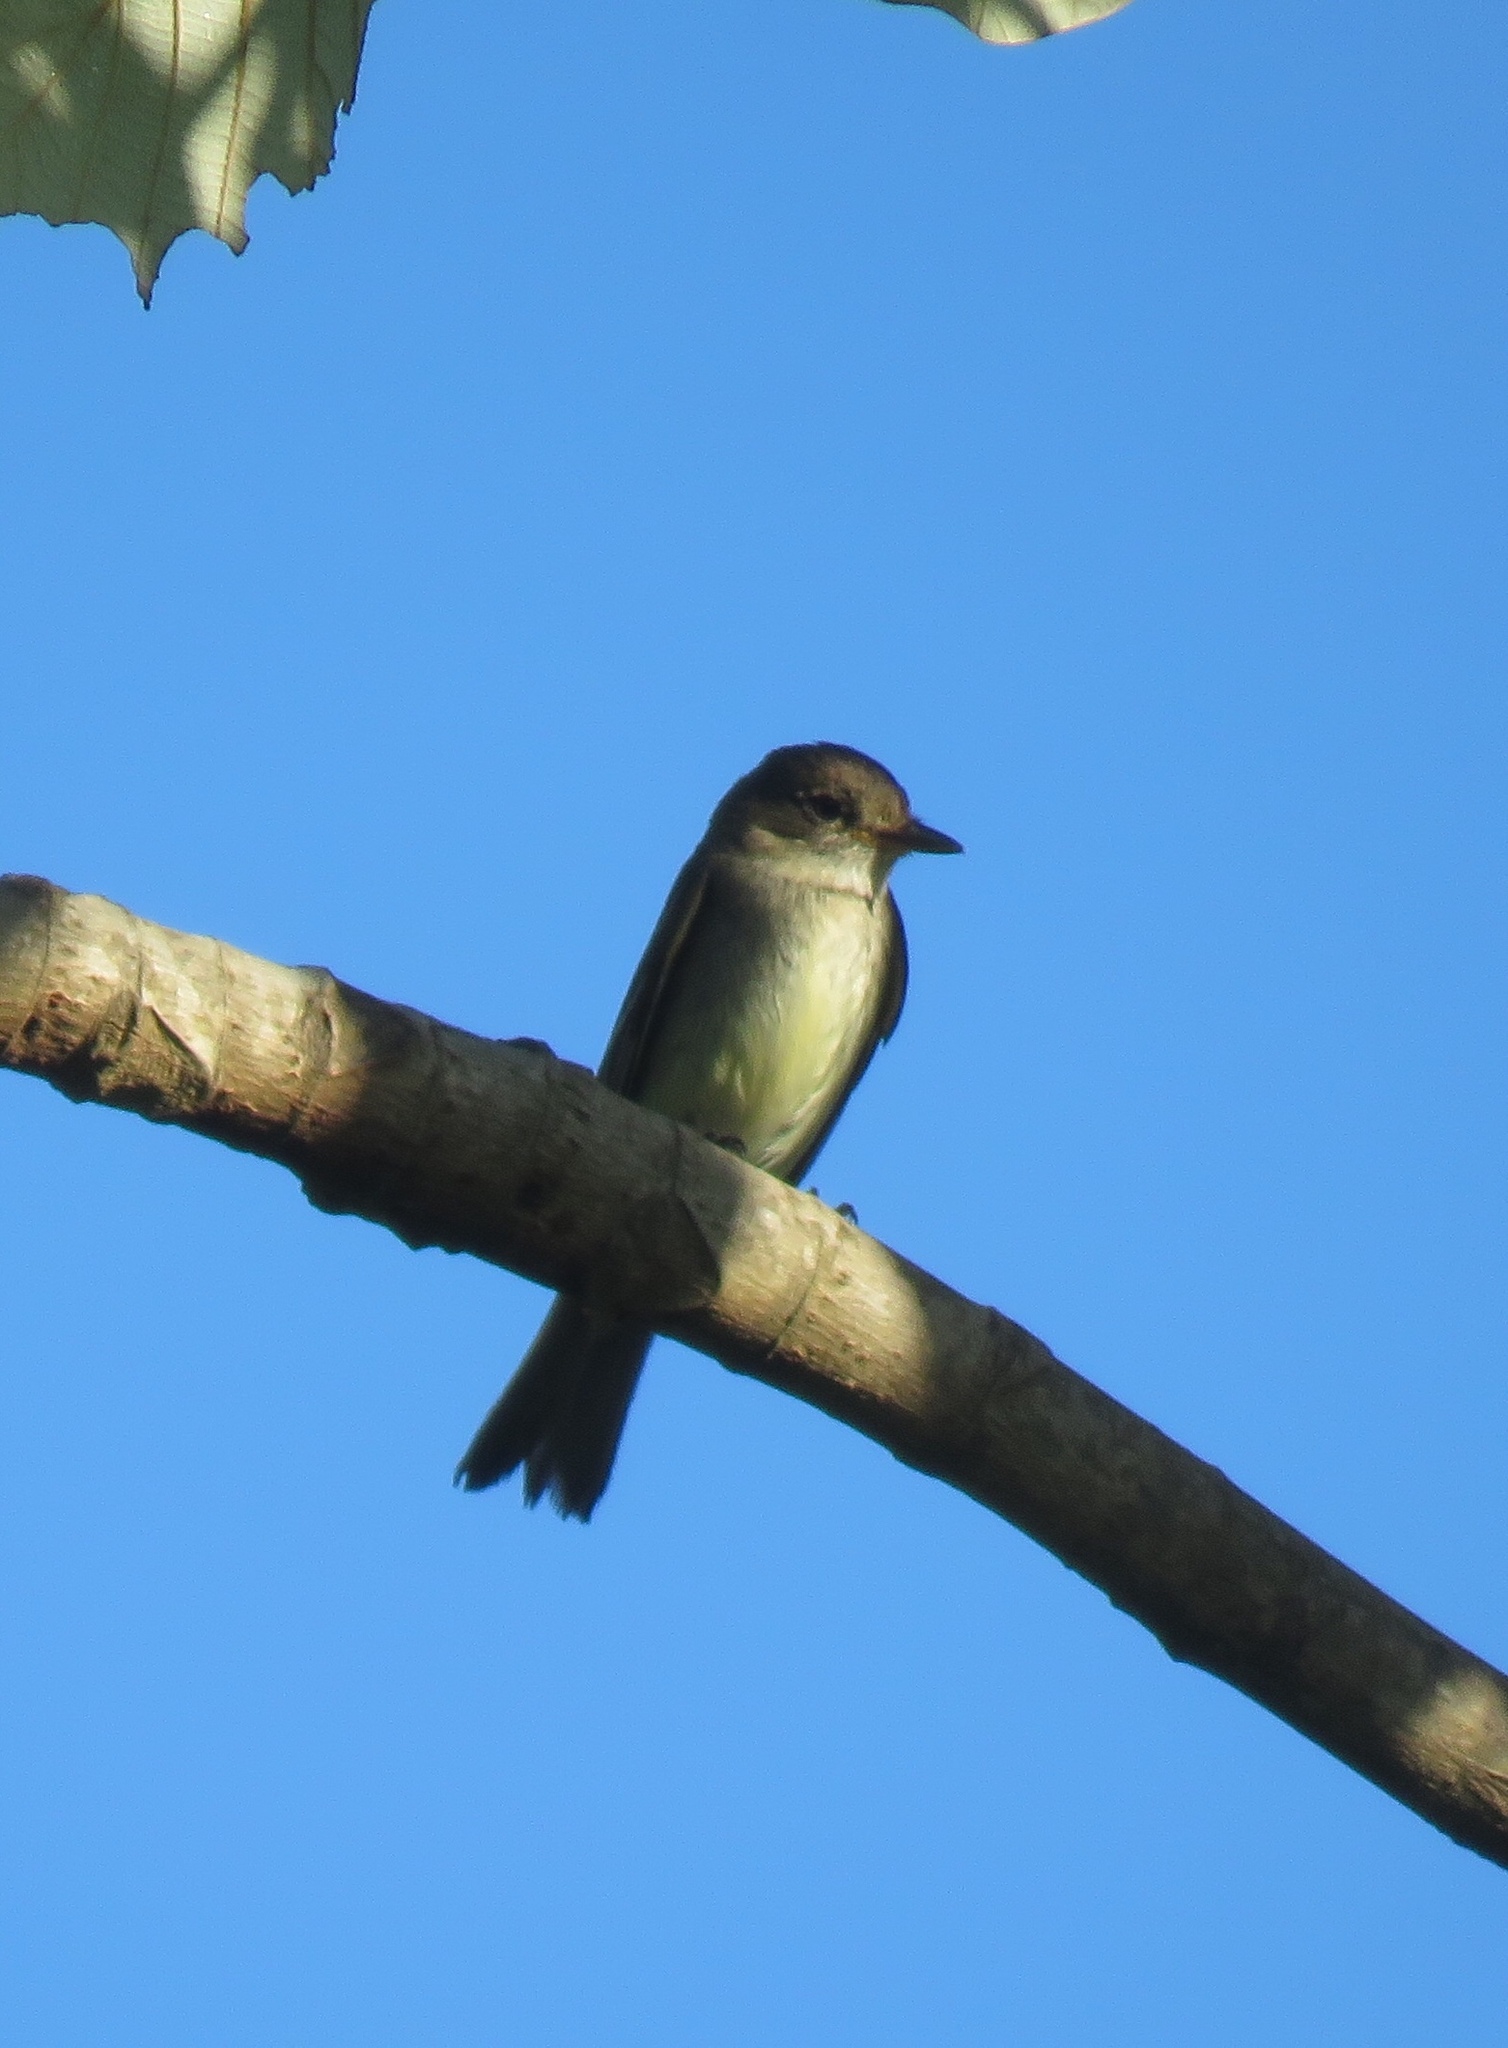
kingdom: Animalia
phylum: Chordata
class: Aves
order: Passeriformes
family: Tyrannidae
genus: Contopus
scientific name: Contopus virens
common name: Eastern wood-pewee
